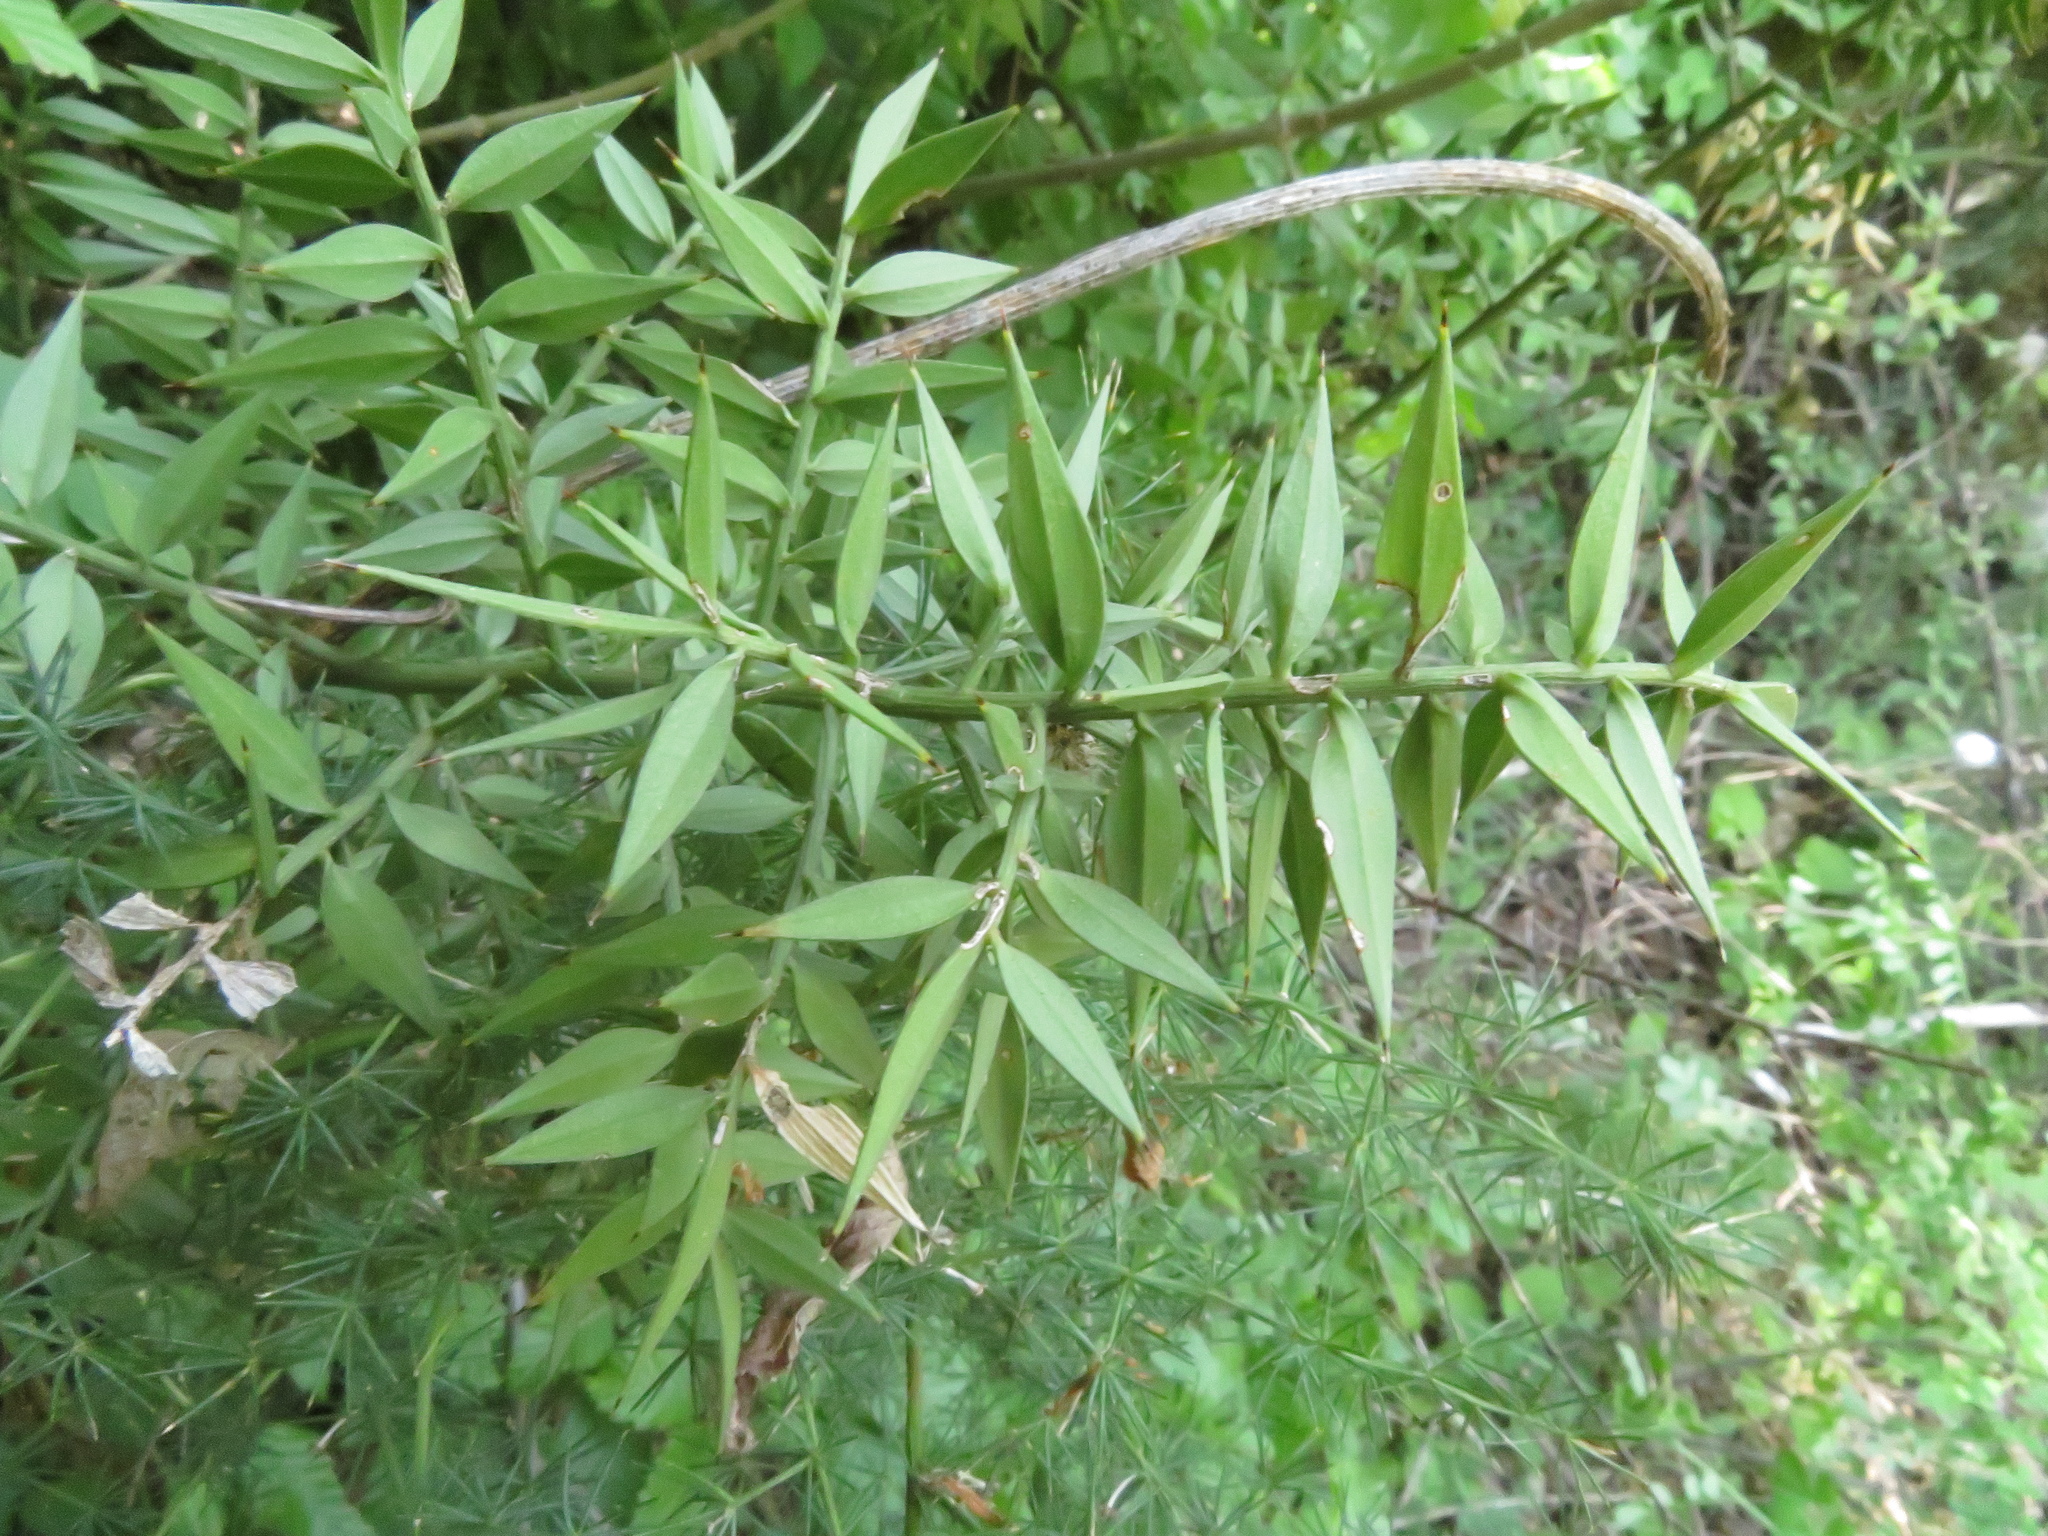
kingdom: Plantae
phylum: Tracheophyta
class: Liliopsida
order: Asparagales
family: Asparagaceae
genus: Ruscus
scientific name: Ruscus aculeatus
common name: Butcher's-broom
